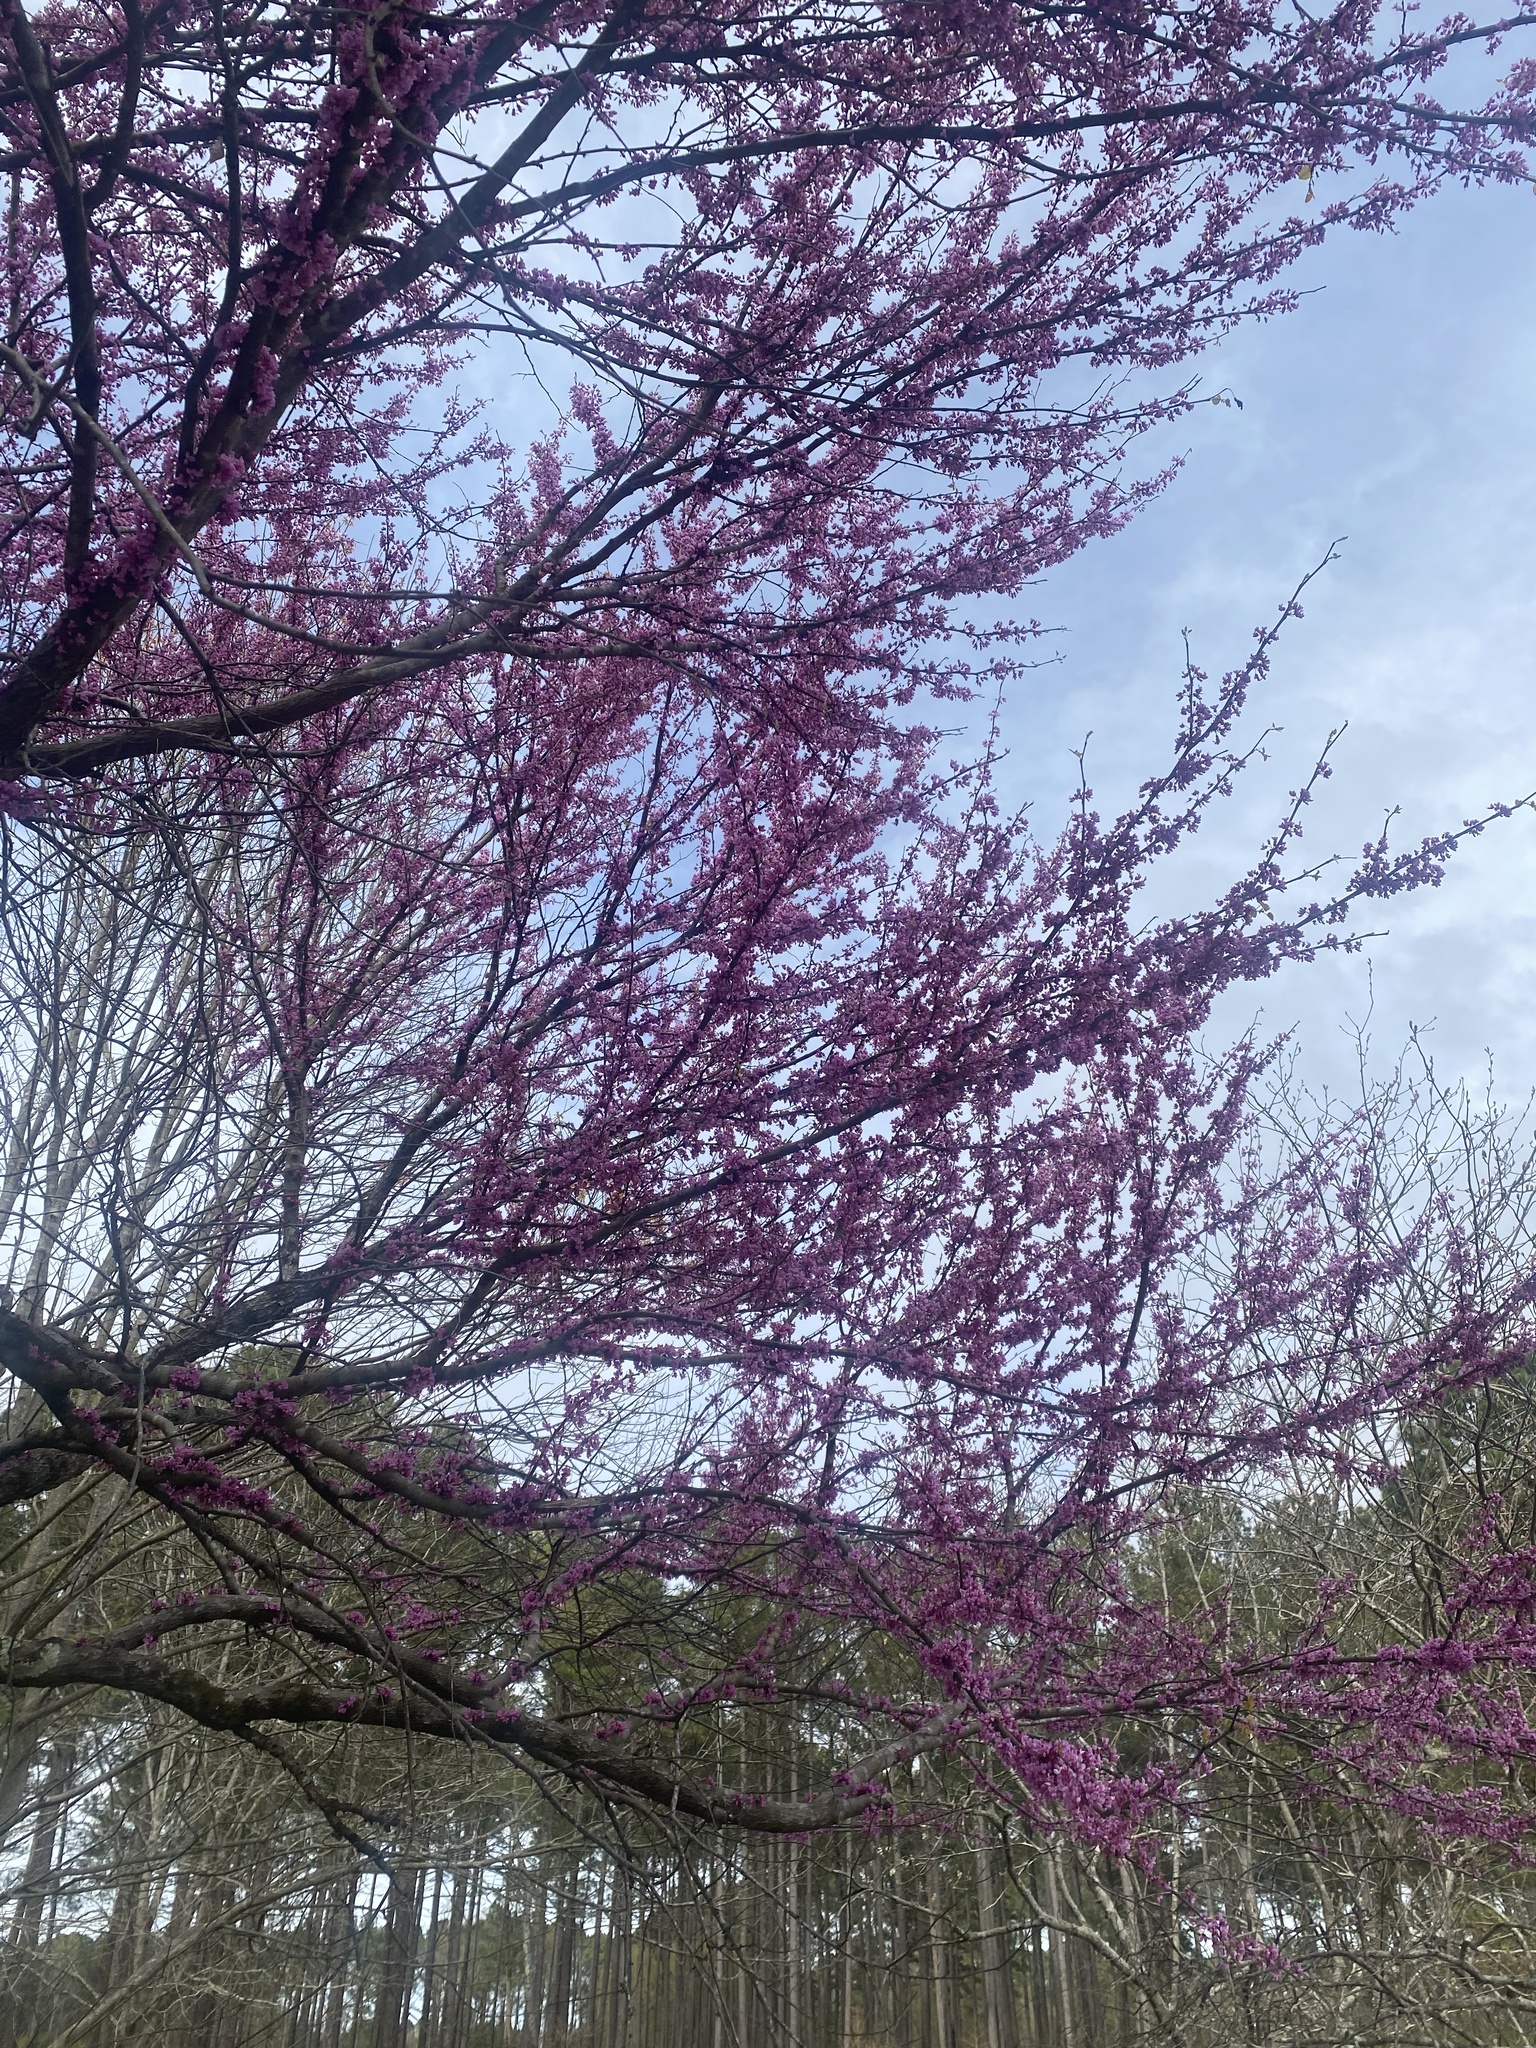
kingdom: Plantae
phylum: Tracheophyta
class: Magnoliopsida
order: Fabales
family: Fabaceae
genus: Cercis
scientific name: Cercis canadensis
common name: Eastern redbud
